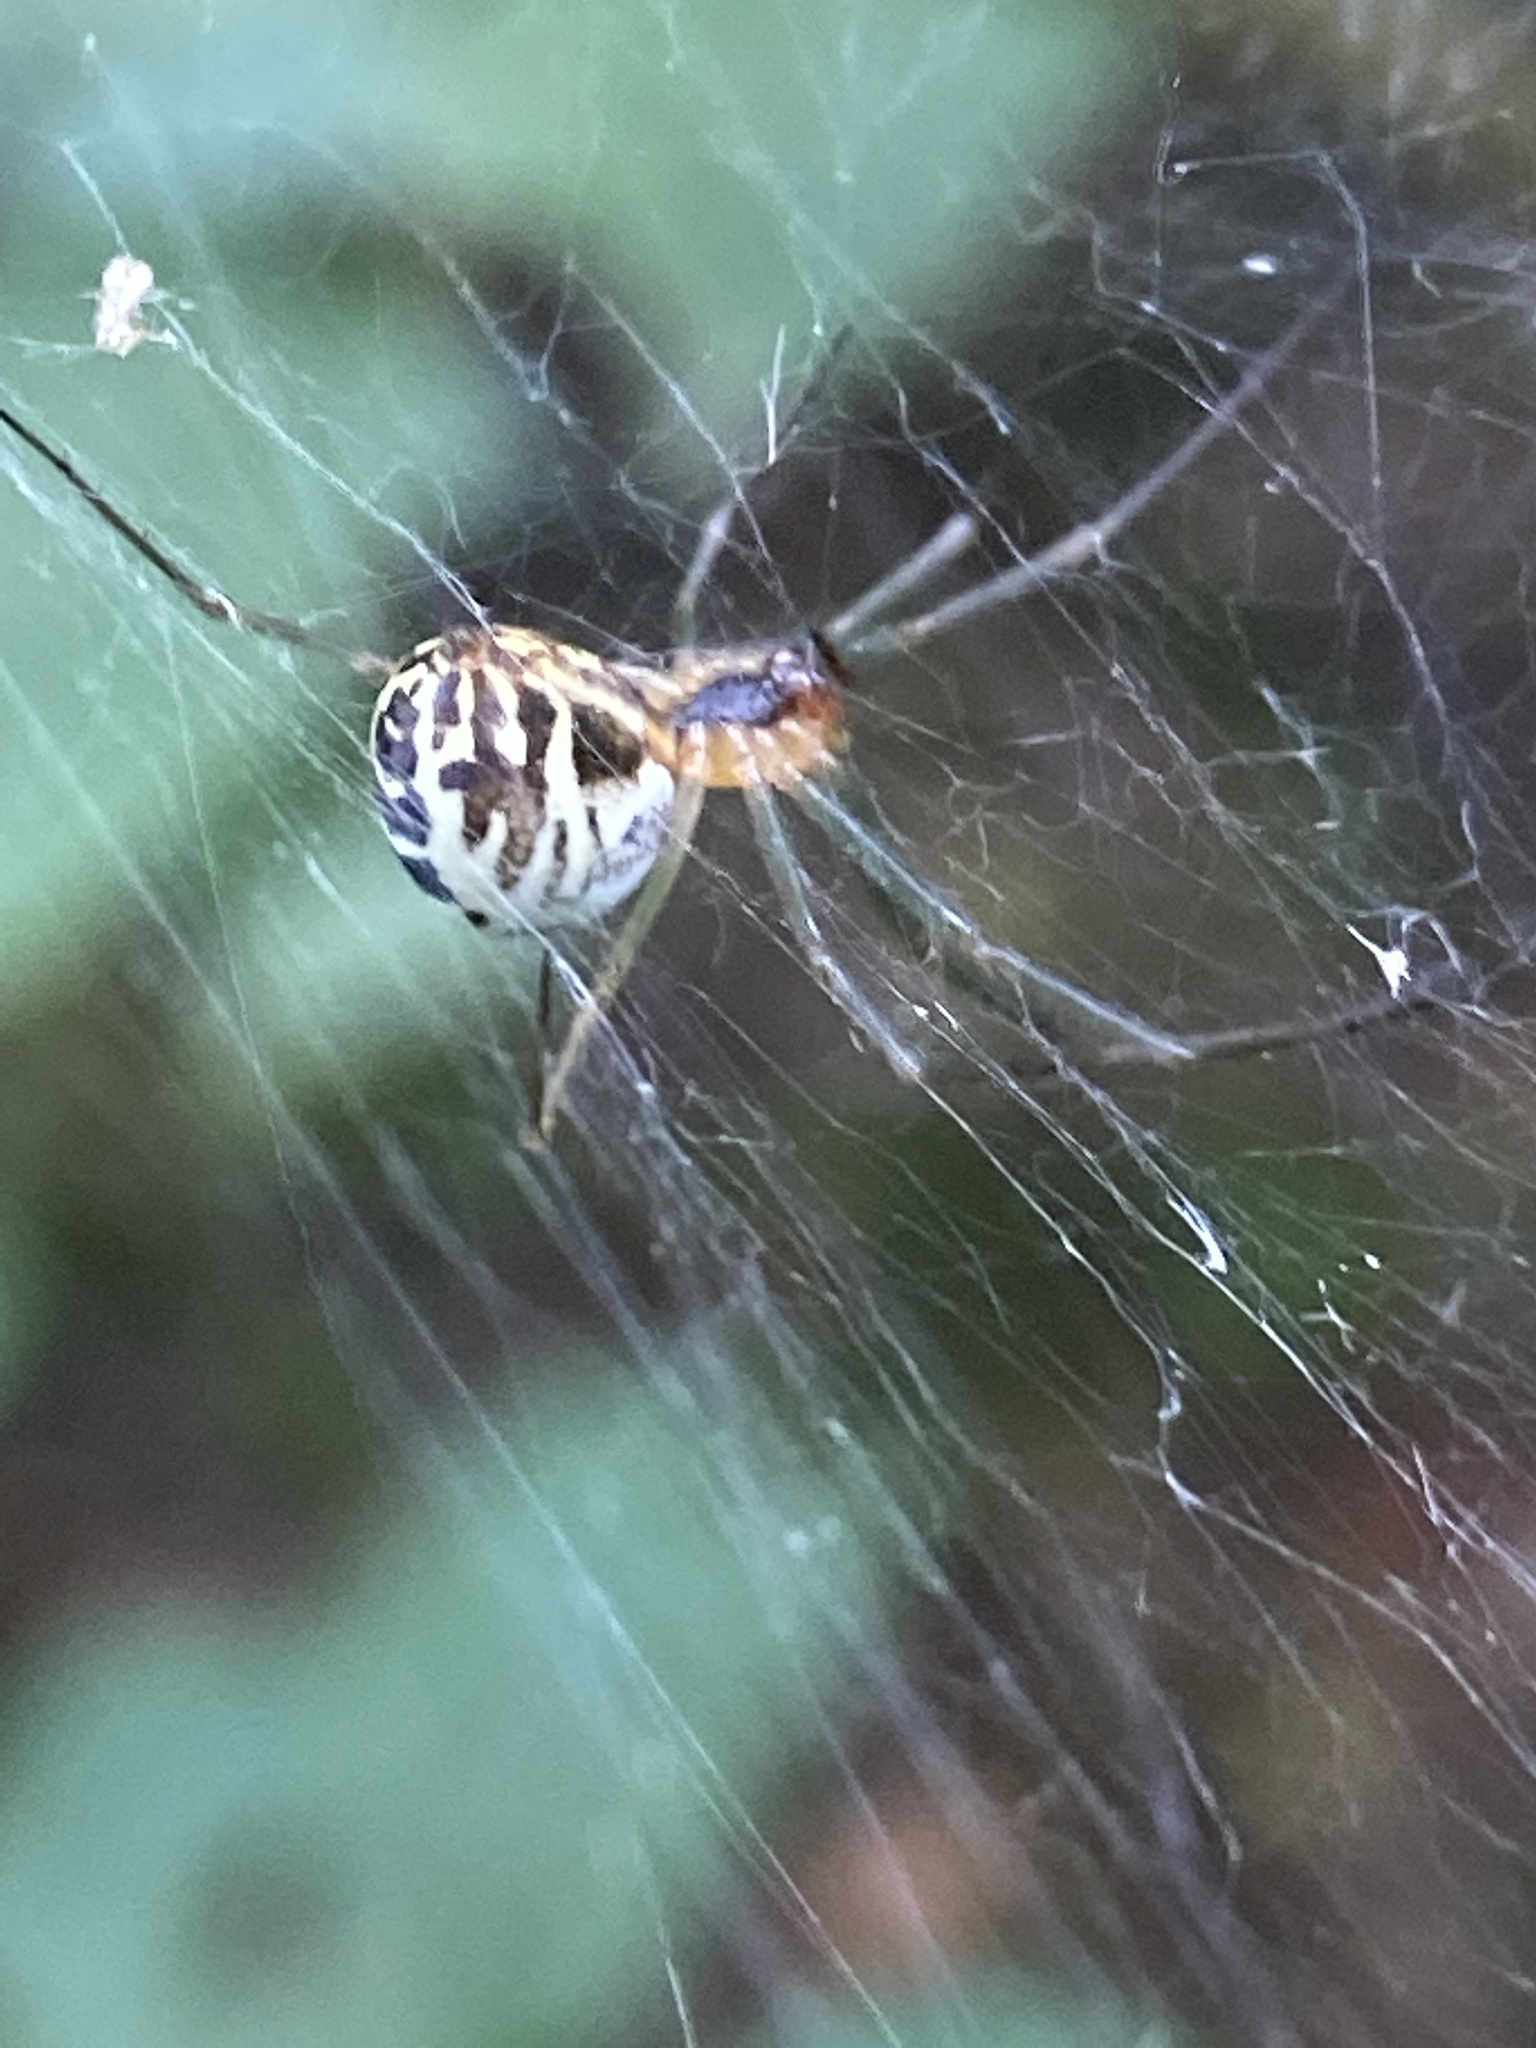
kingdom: Animalia
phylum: Arthropoda
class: Arachnida
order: Araneae
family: Linyphiidae
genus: Neriene
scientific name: Neriene emphana
